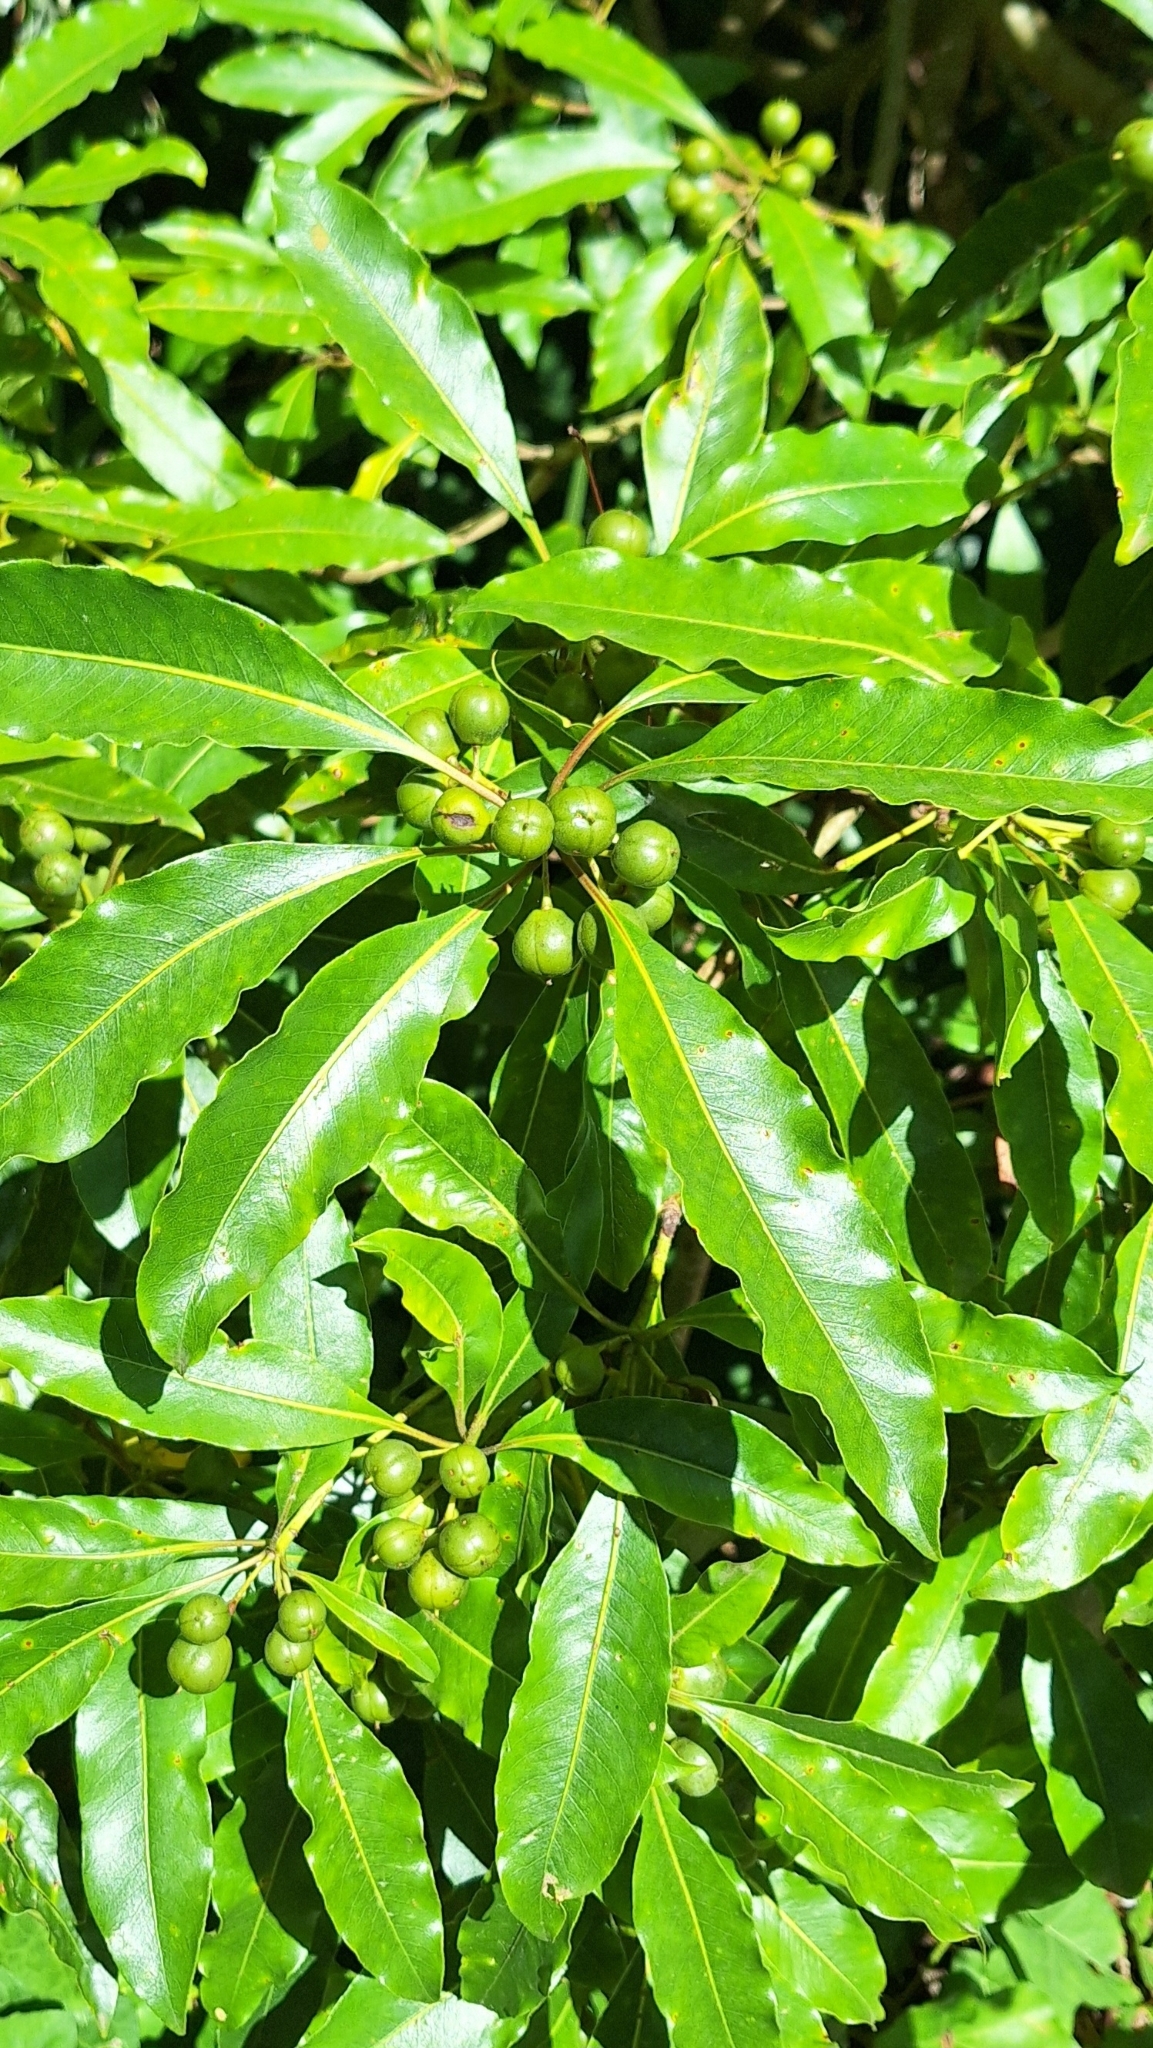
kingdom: Plantae
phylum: Tracheophyta
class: Magnoliopsida
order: Apiales
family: Pittosporaceae
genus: Pittosporum
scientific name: Pittosporum undulatum
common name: Australian cheesewood
